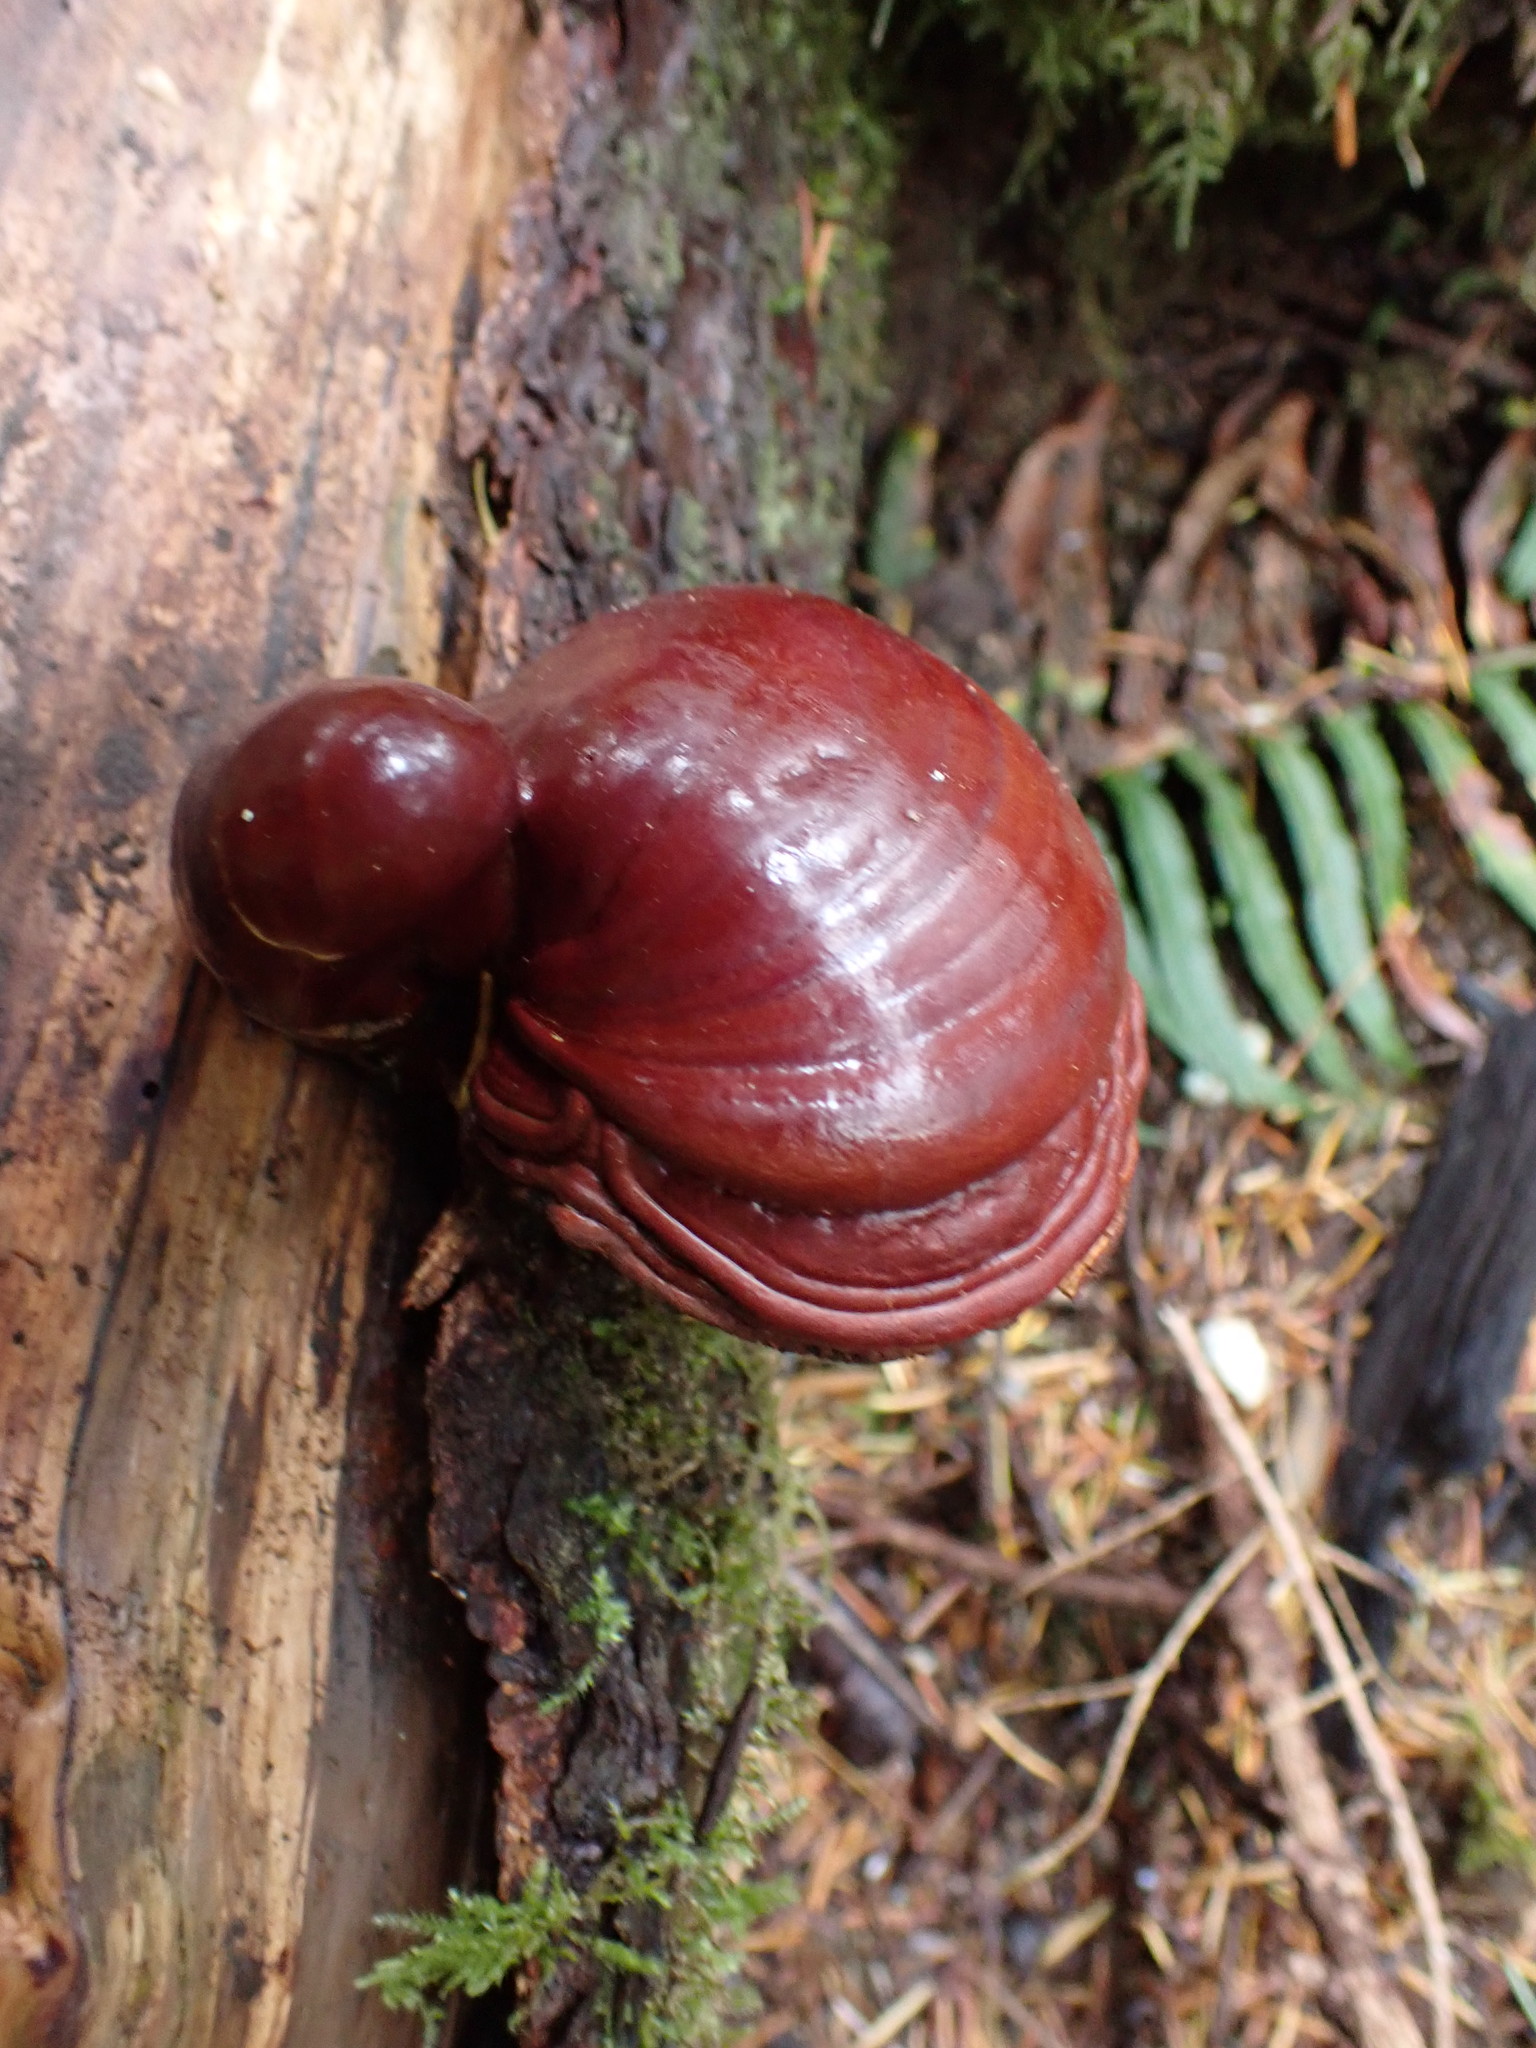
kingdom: Fungi
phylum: Basidiomycota
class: Agaricomycetes
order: Polyporales
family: Polyporaceae
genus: Ganoderma
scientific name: Ganoderma oregonense
